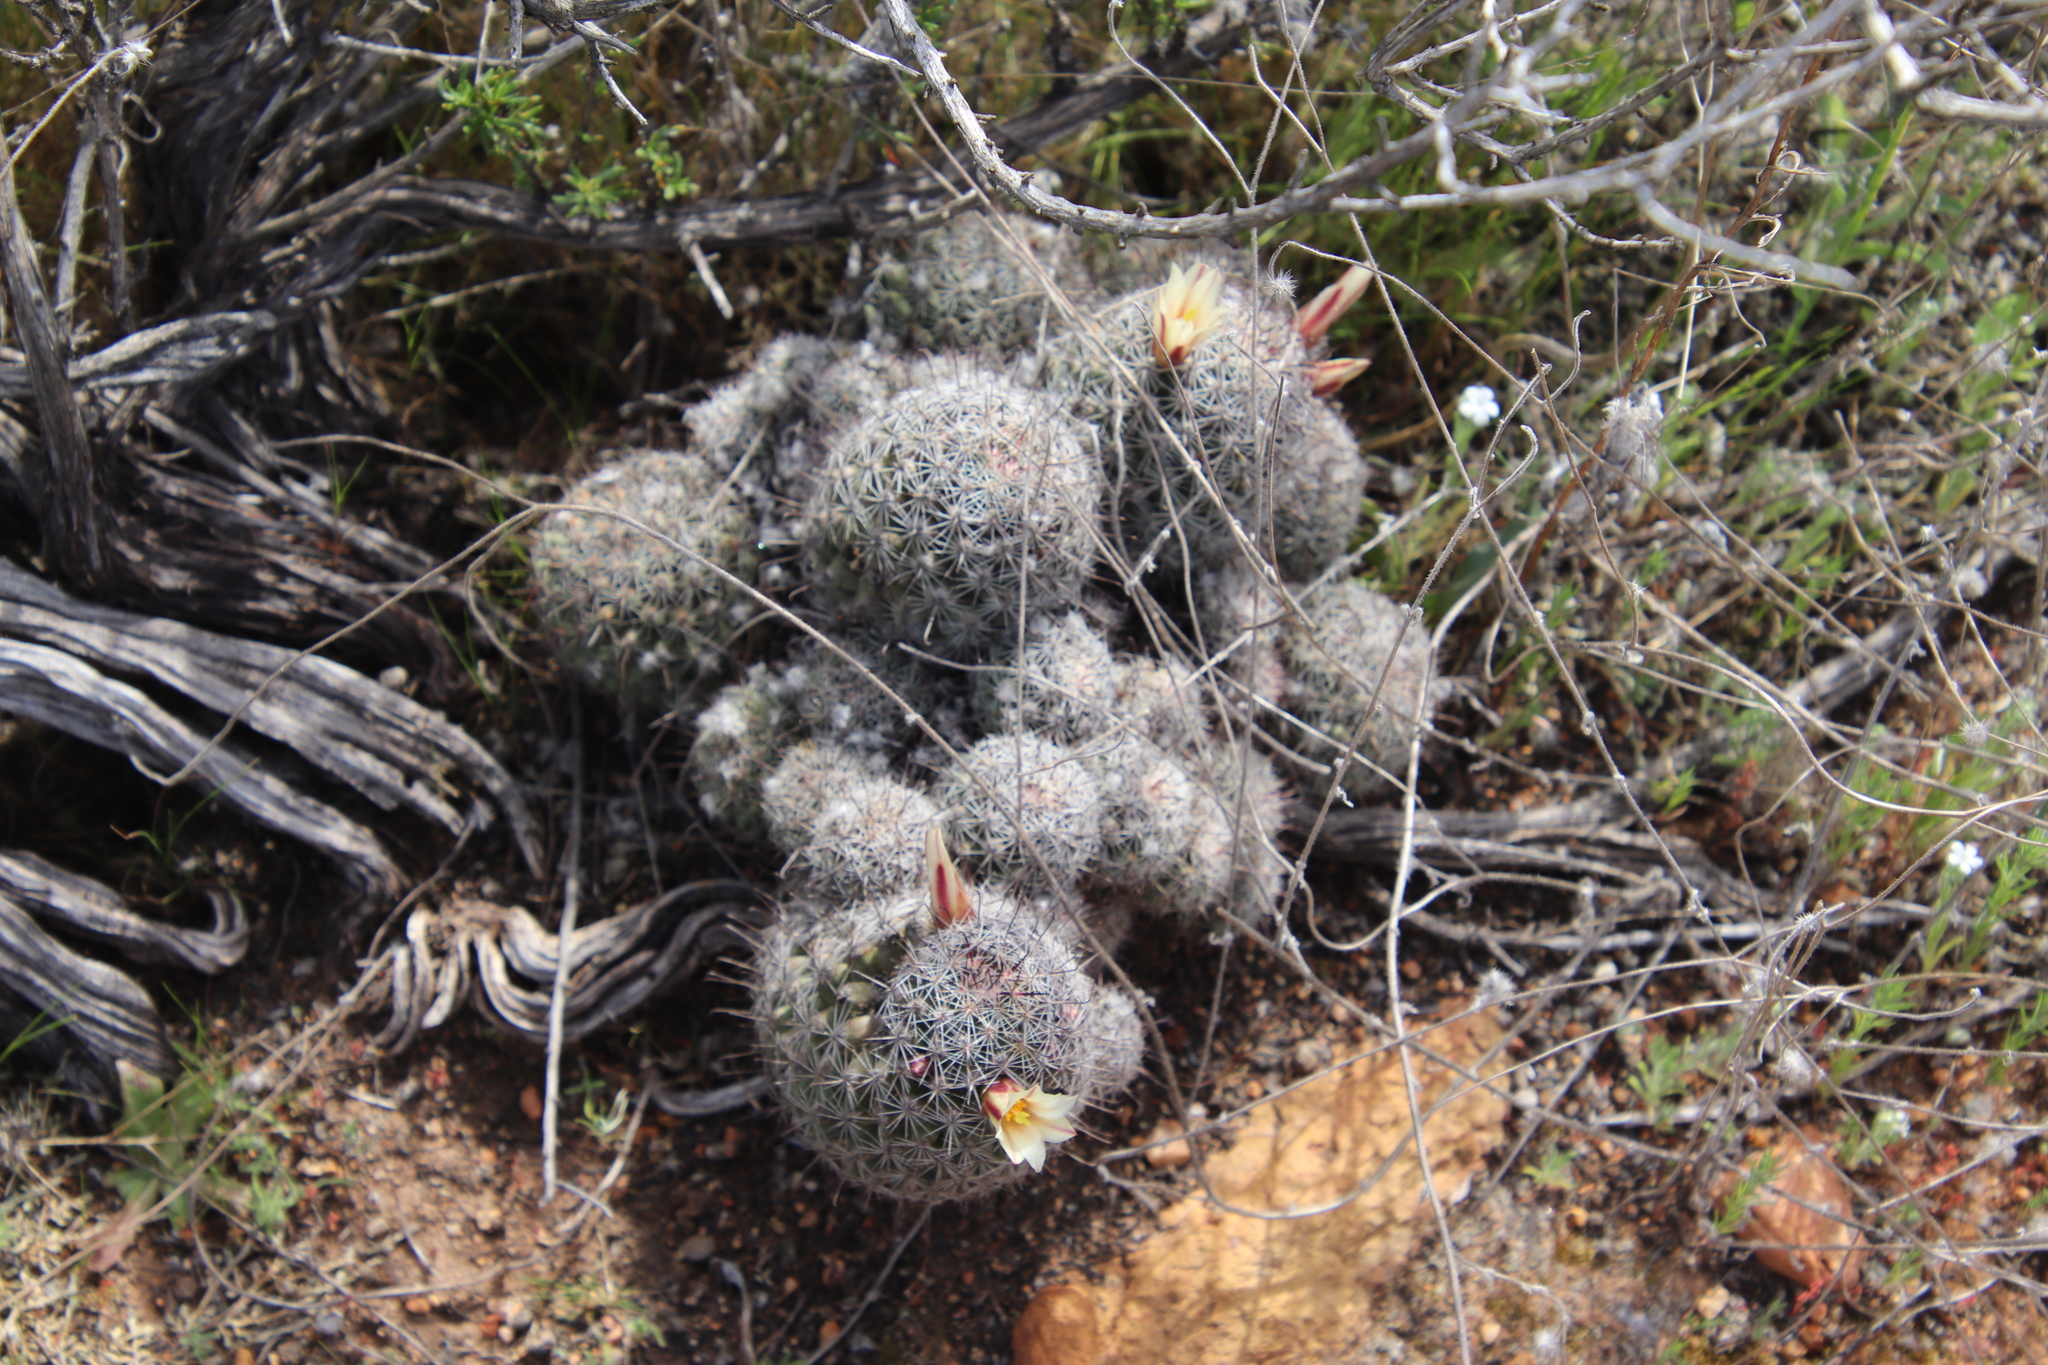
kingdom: Plantae
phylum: Tracheophyta
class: Magnoliopsida
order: Caryophyllales
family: Cactaceae
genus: Cochemiea
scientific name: Cochemiea dioica
